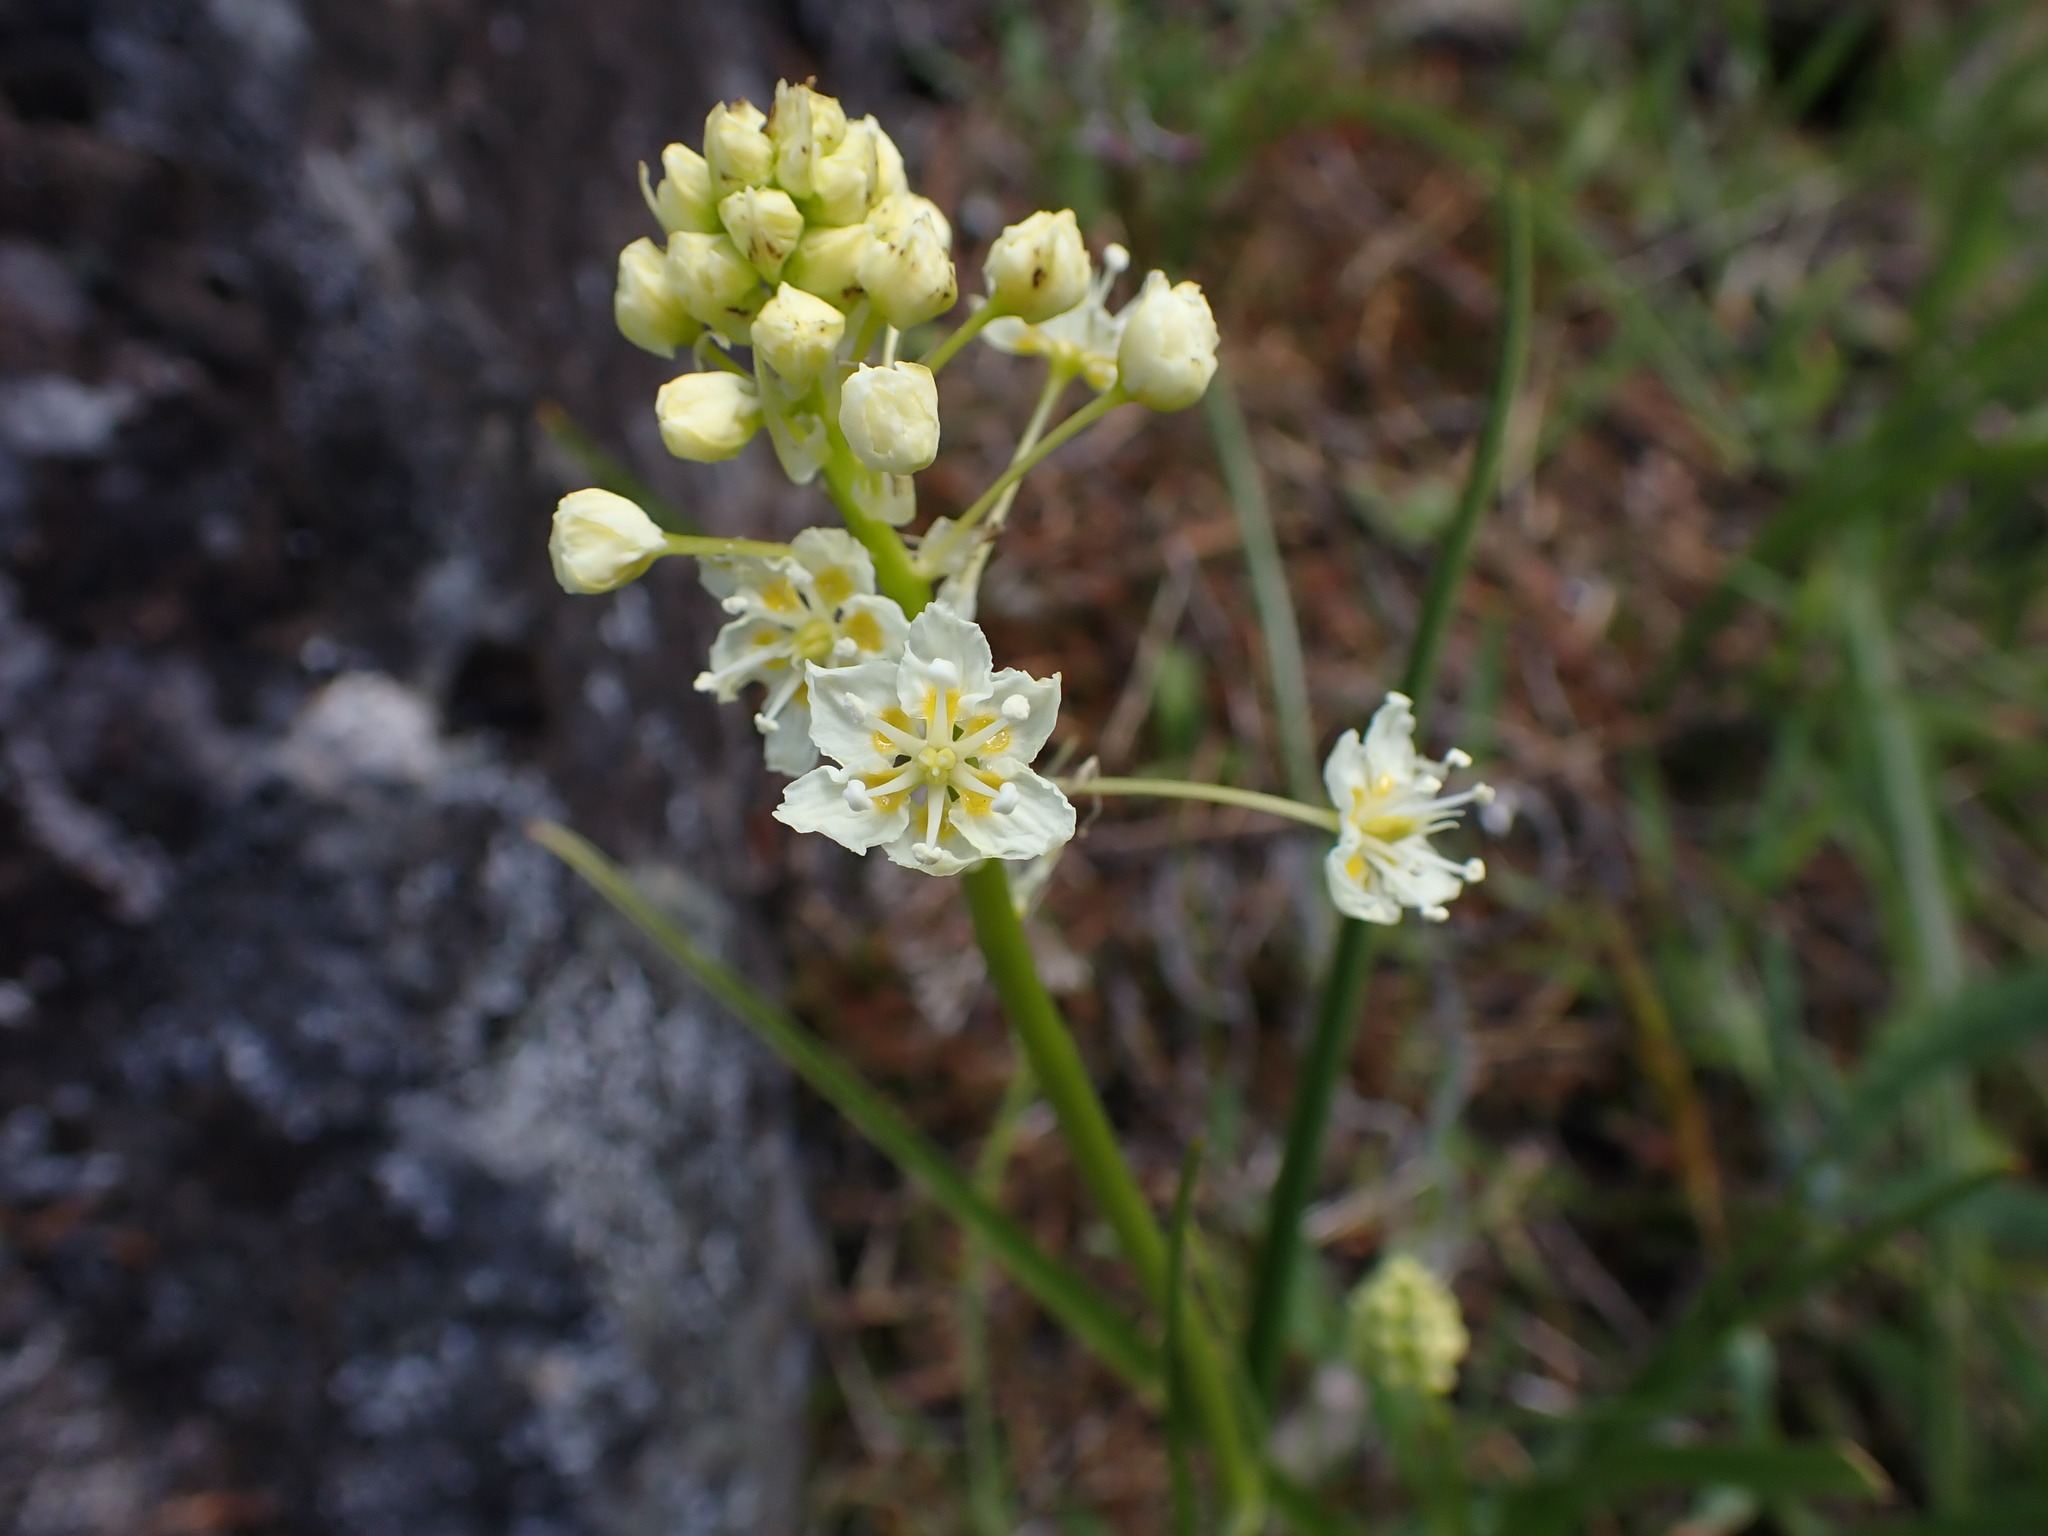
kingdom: Plantae
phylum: Tracheophyta
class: Liliopsida
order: Liliales
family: Melanthiaceae
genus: Toxicoscordion
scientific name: Toxicoscordion venenosum
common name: Meadow death camas
